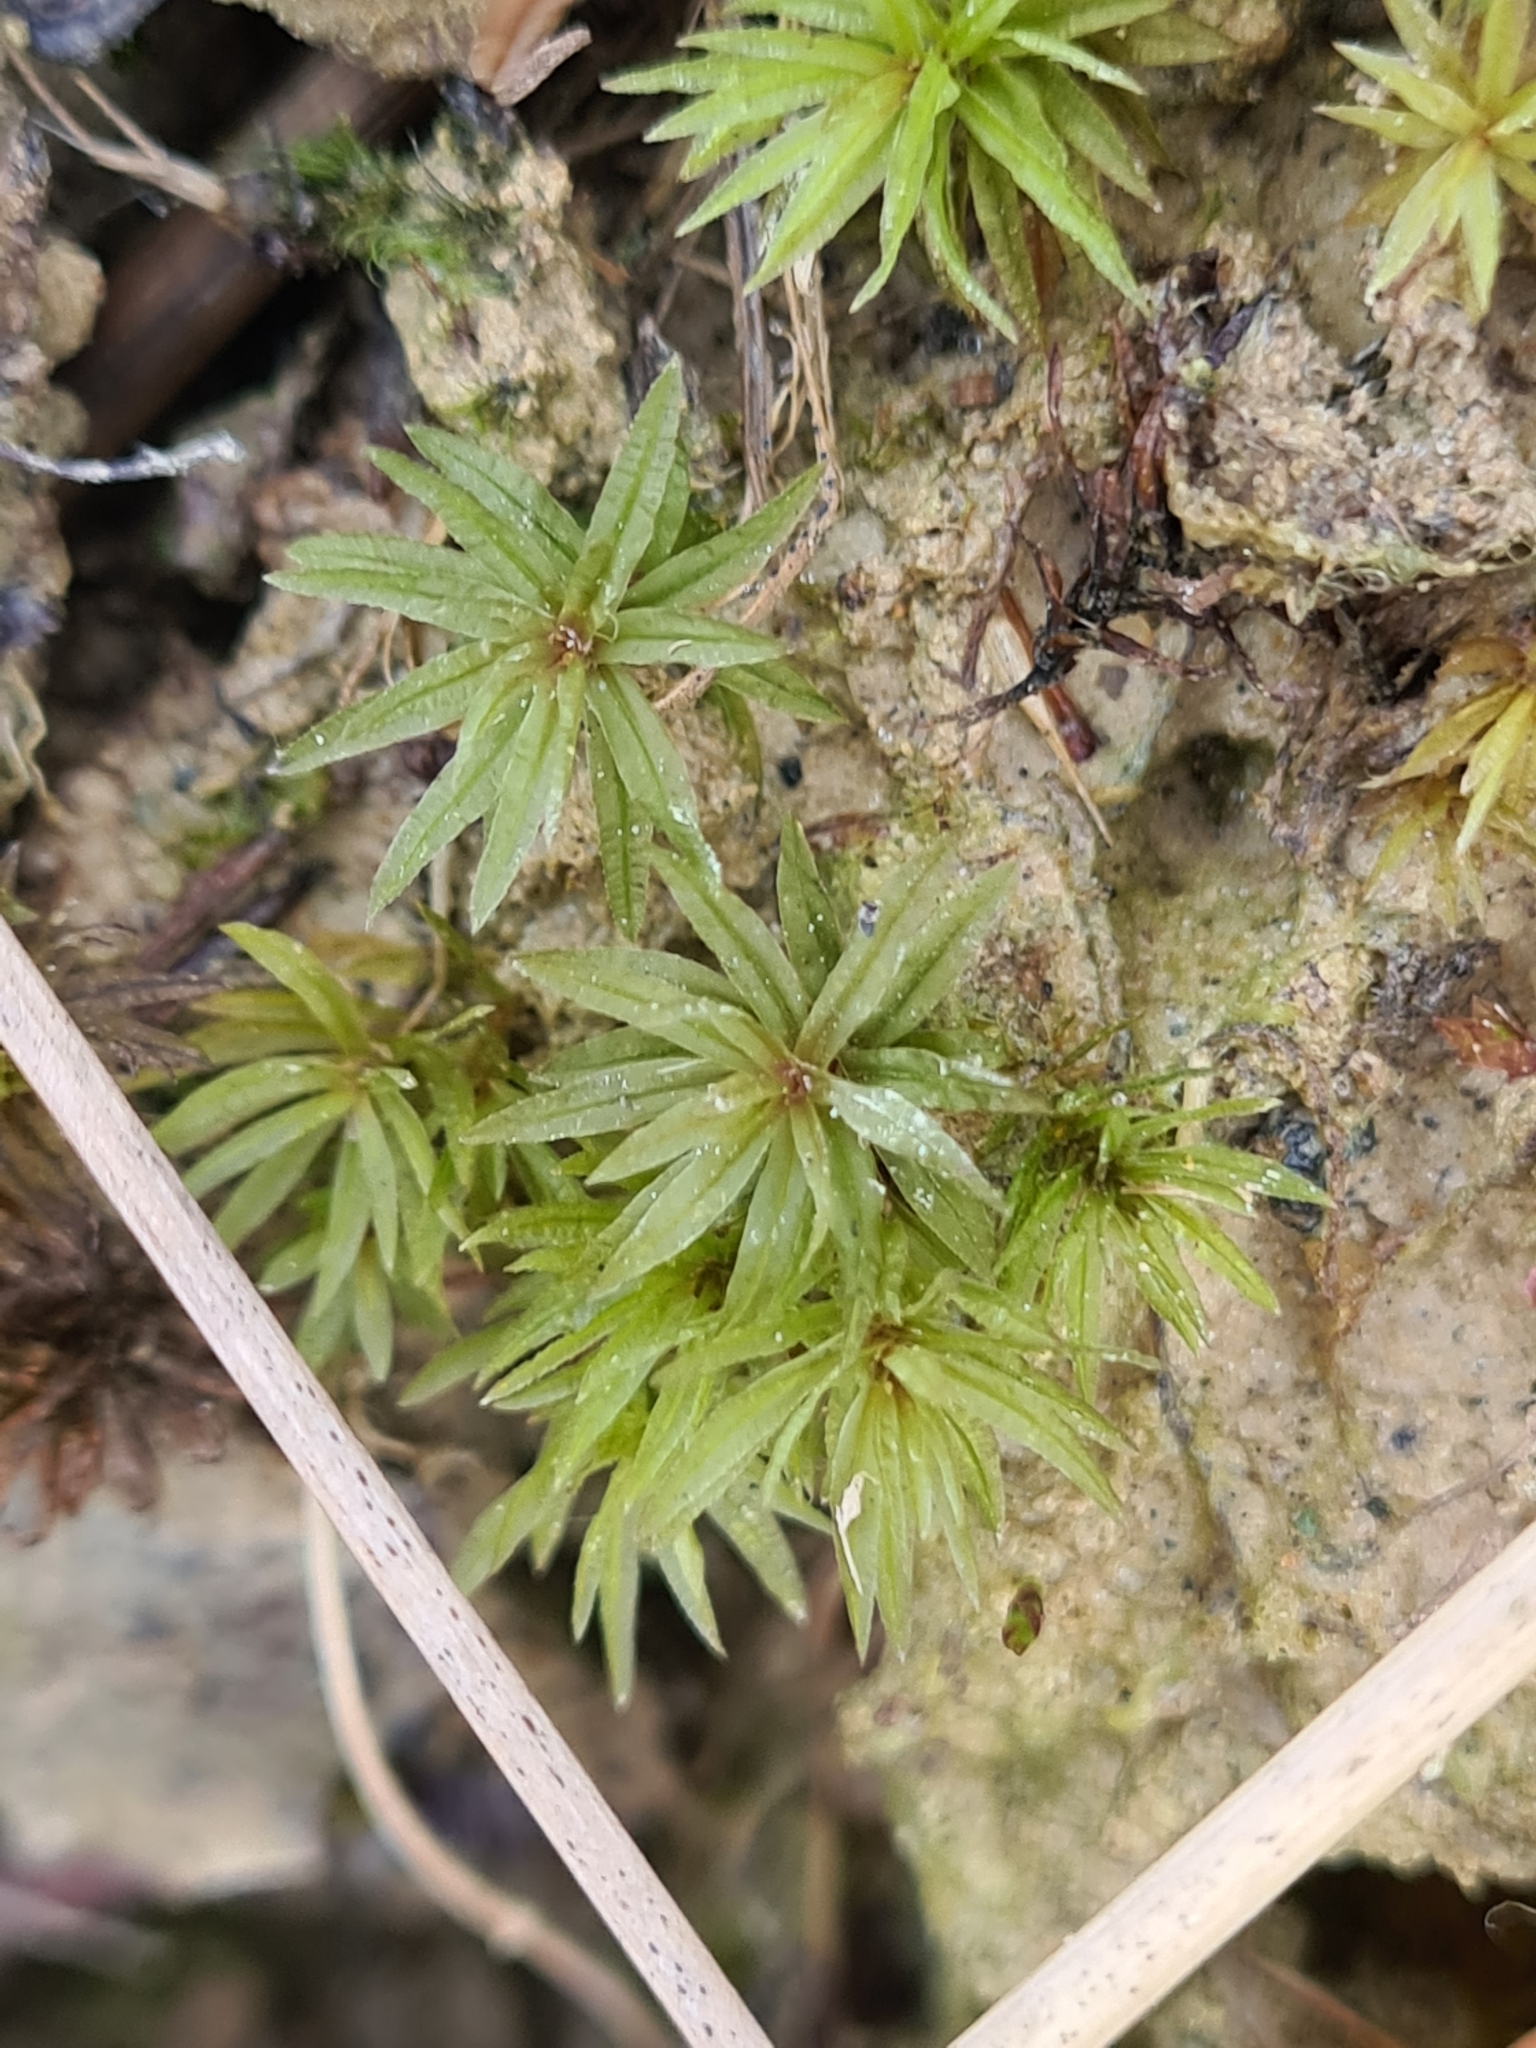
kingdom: Plantae
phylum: Bryophyta
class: Polytrichopsida
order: Polytrichales
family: Polytrichaceae
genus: Atrichum
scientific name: Atrichum undulatum
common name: Common smoothcap
